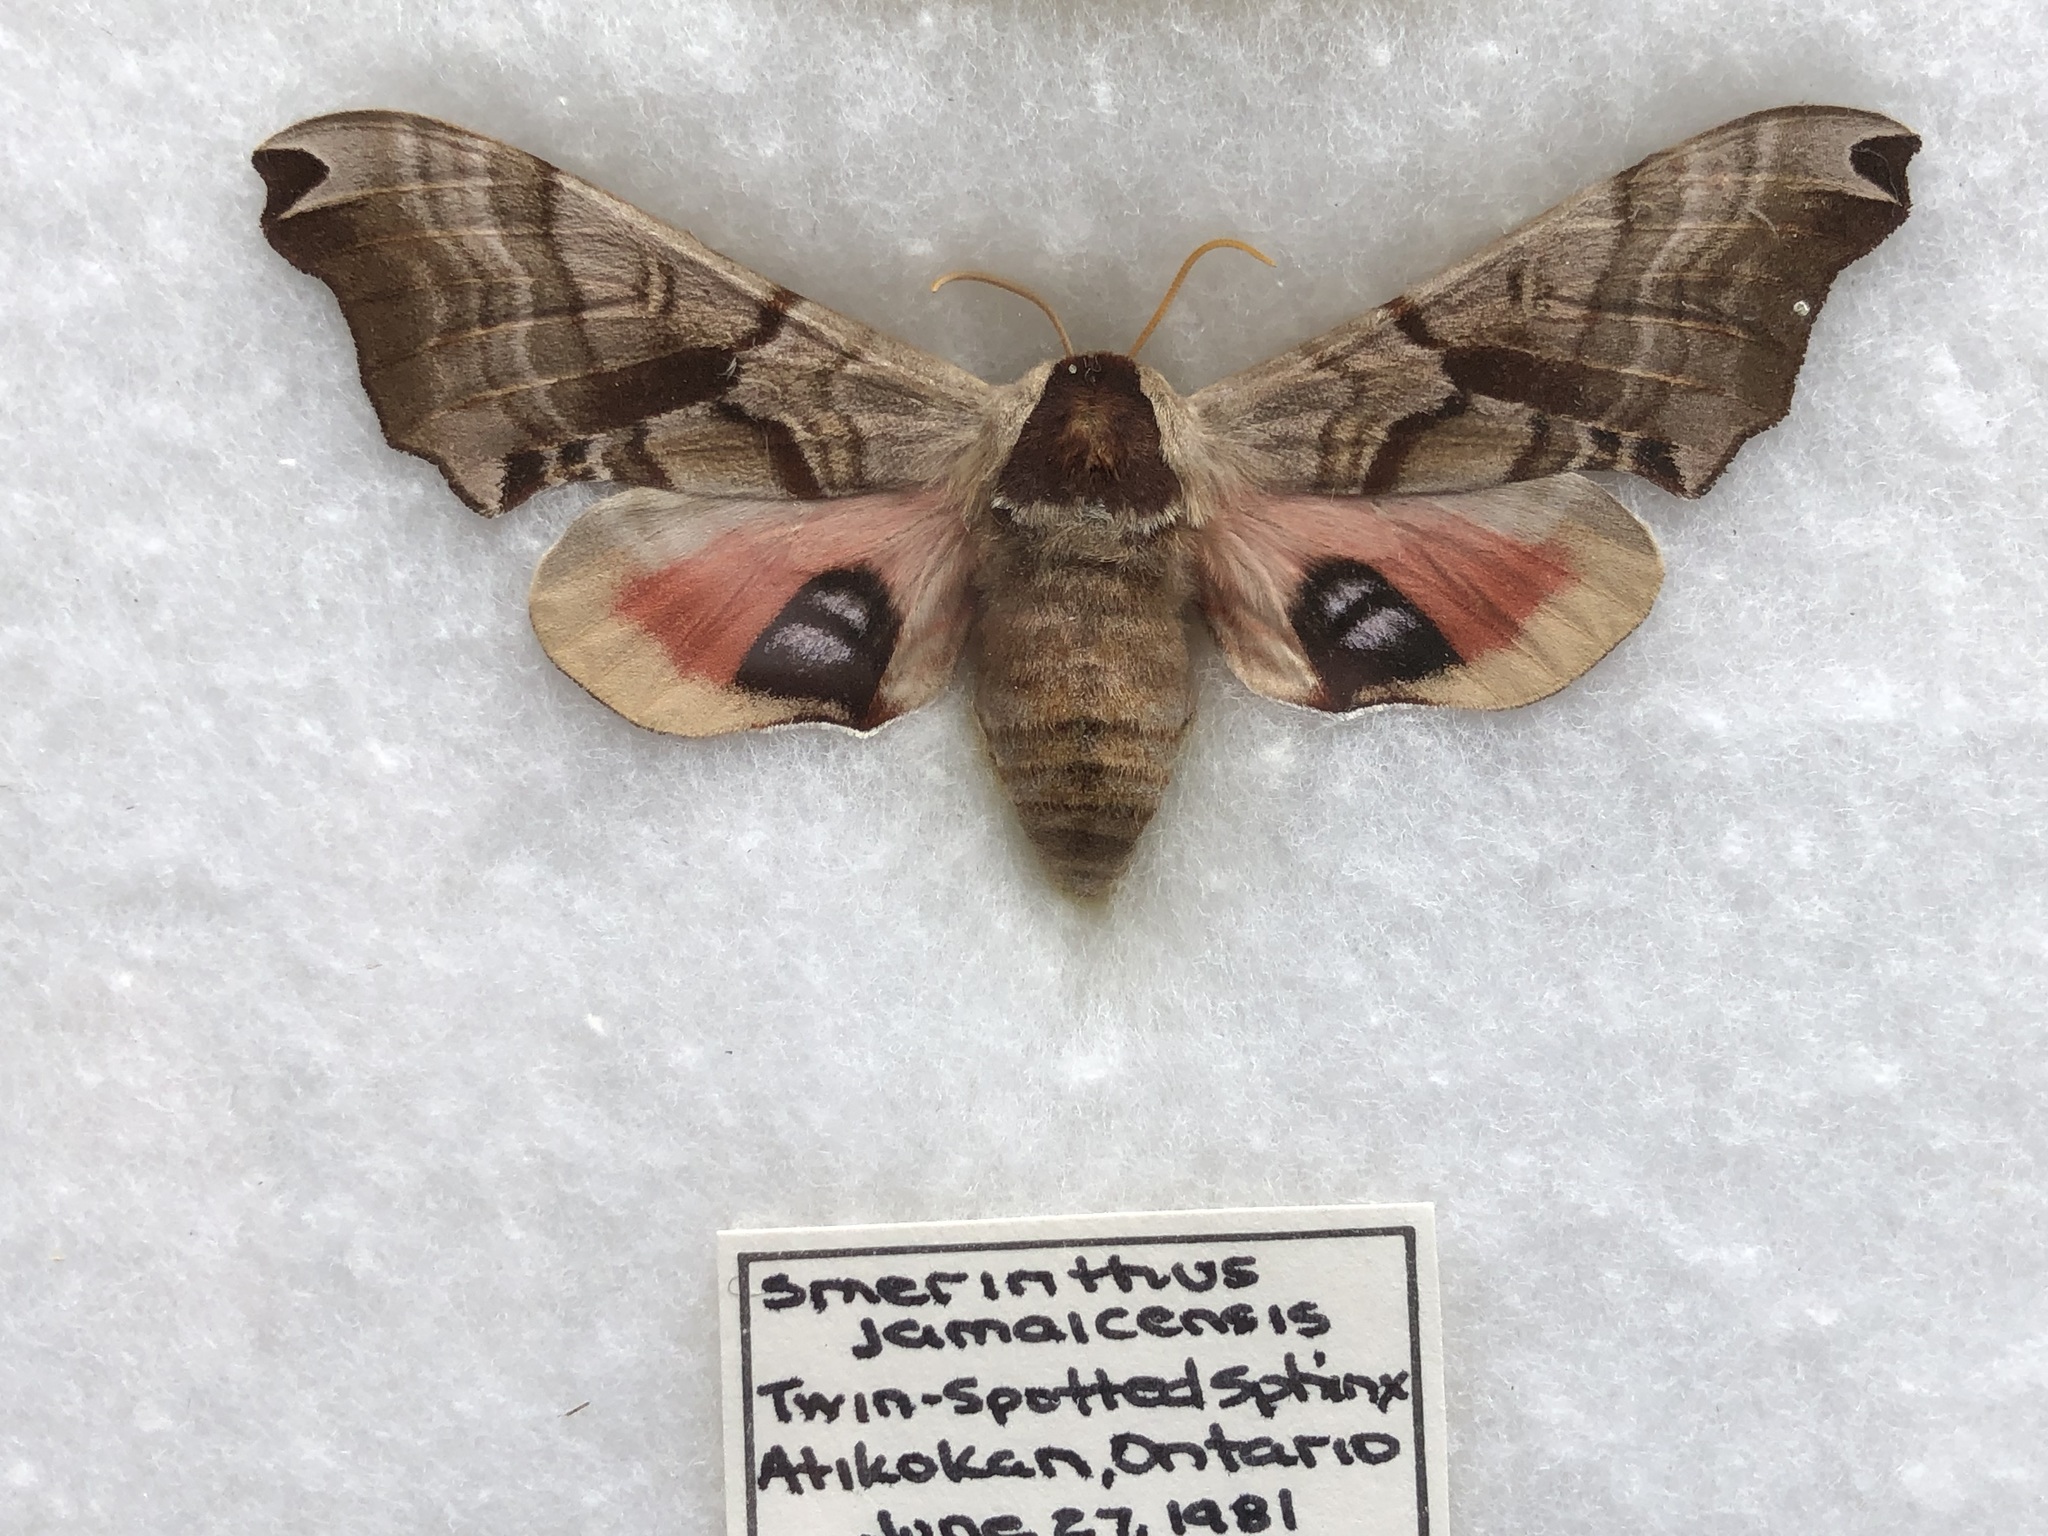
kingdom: Animalia
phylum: Arthropoda
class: Insecta
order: Lepidoptera
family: Sphingidae
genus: Smerinthus
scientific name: Smerinthus jamaicensis
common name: Twin spotted sphinx
